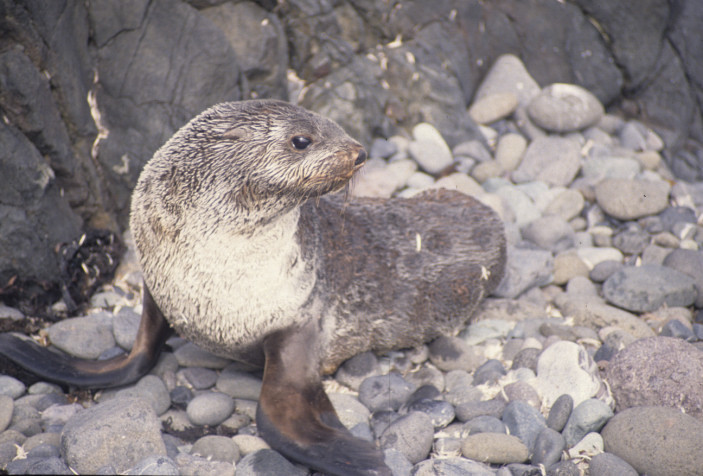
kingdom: Animalia
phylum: Chordata
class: Mammalia
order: Carnivora
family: Otariidae
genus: Arctocephalus
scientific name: Arctocephalus gazella
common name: Antarctic fur seal
